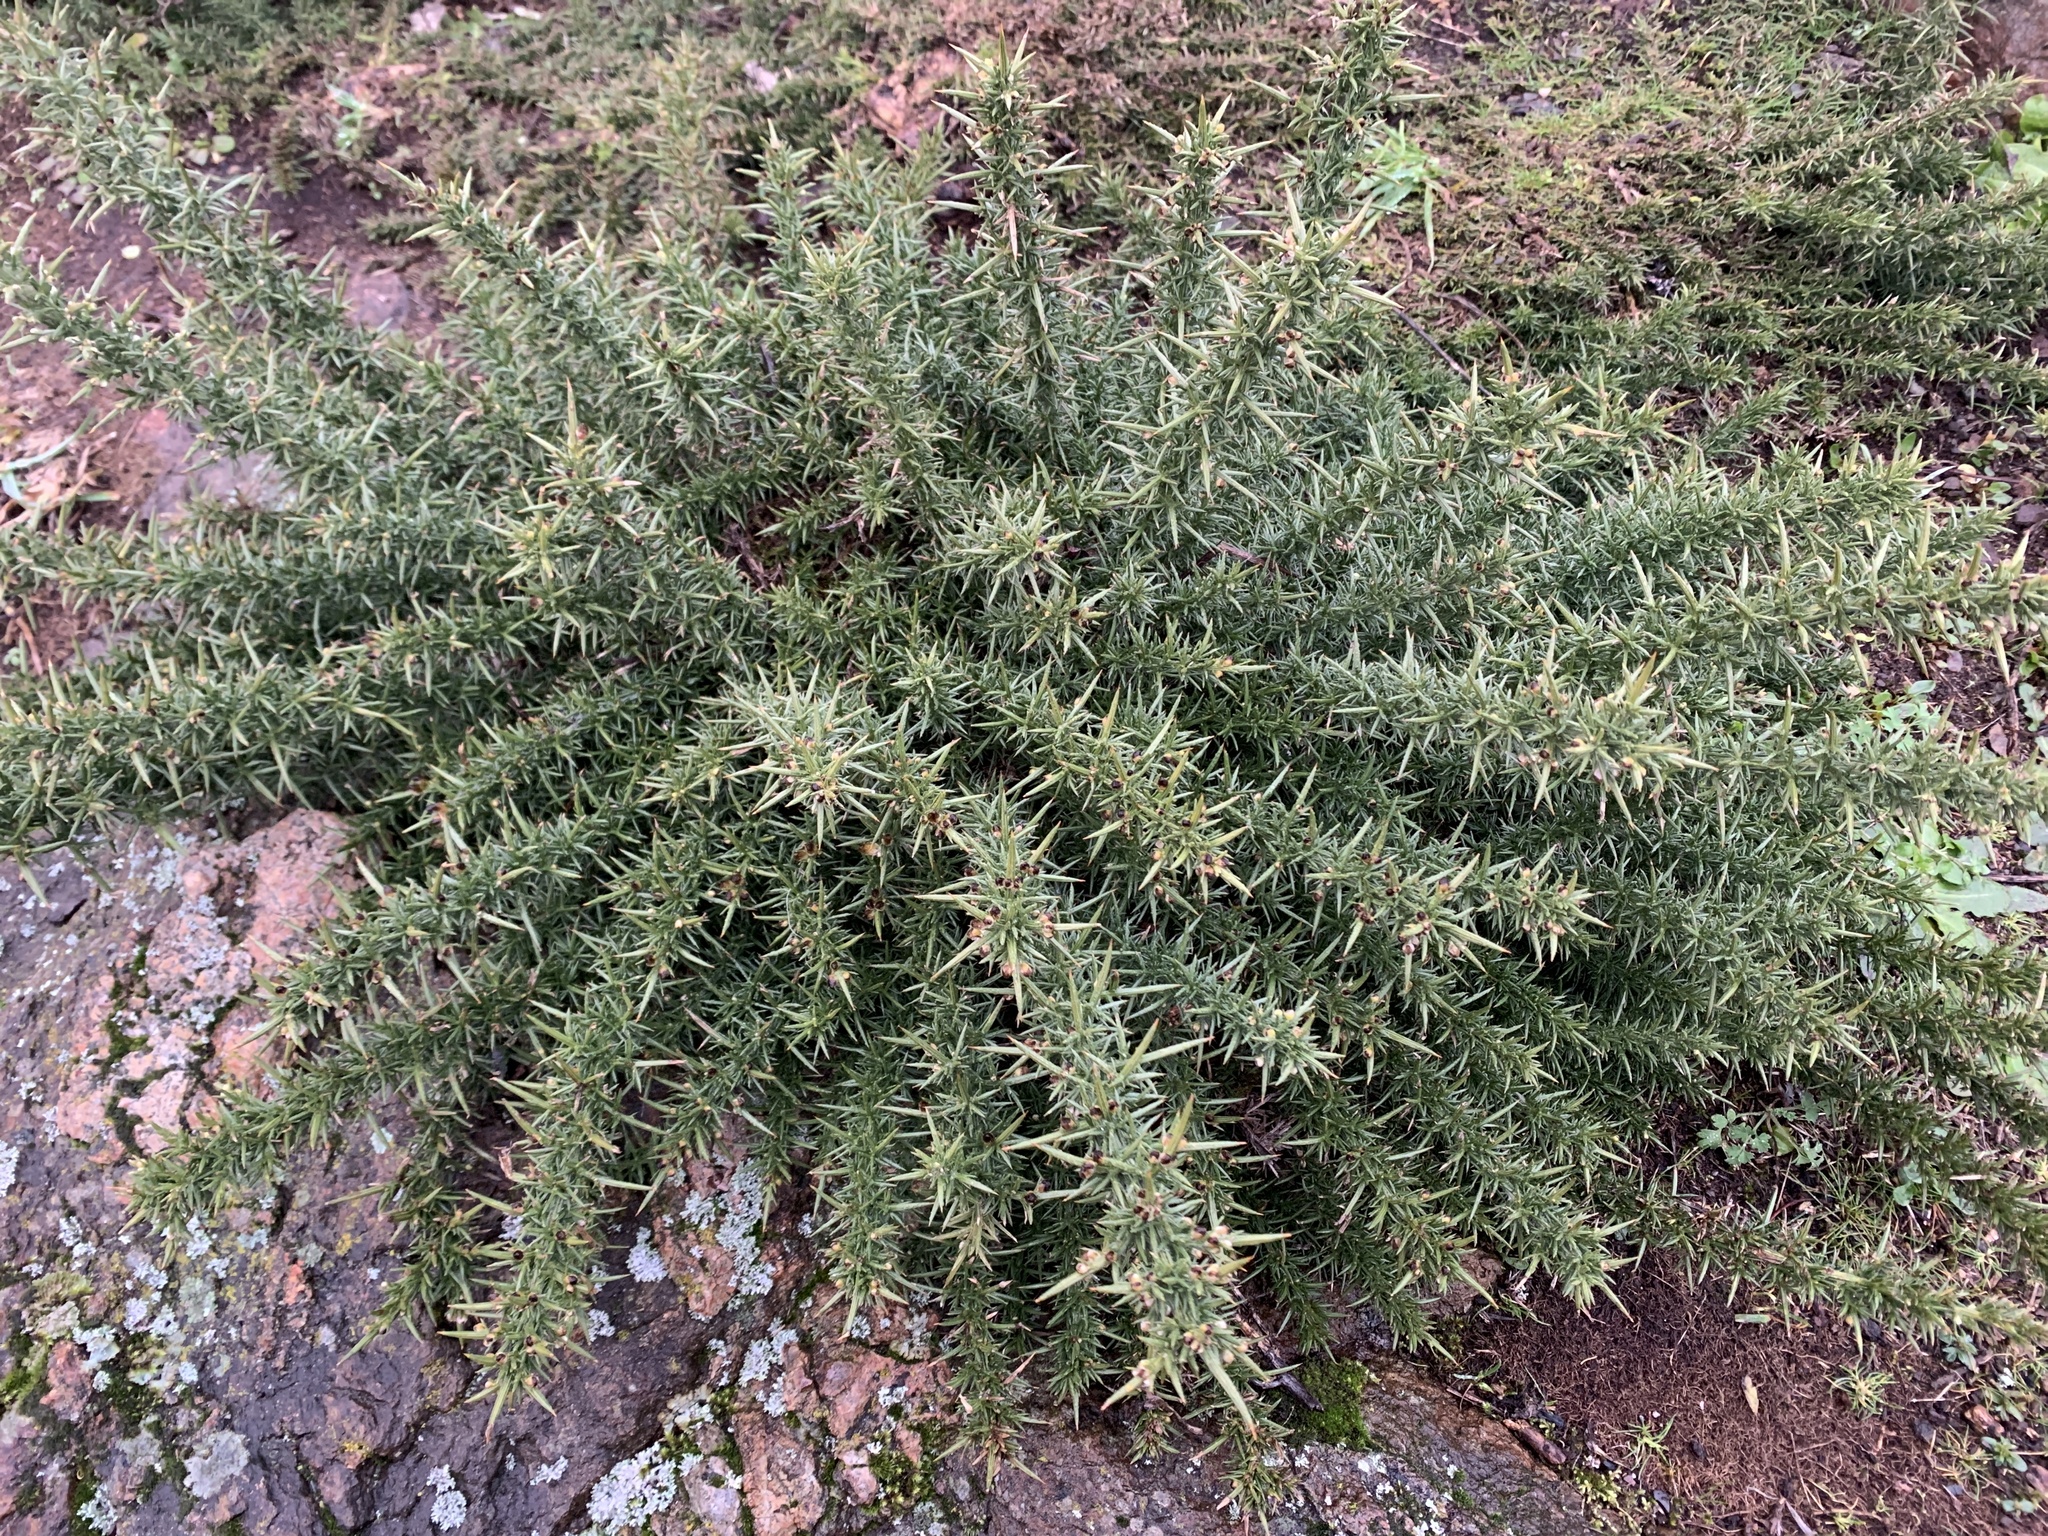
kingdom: Plantae
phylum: Tracheophyta
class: Magnoliopsida
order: Fabales
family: Fabaceae
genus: Ulex
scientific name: Ulex europaeus
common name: Common gorse
